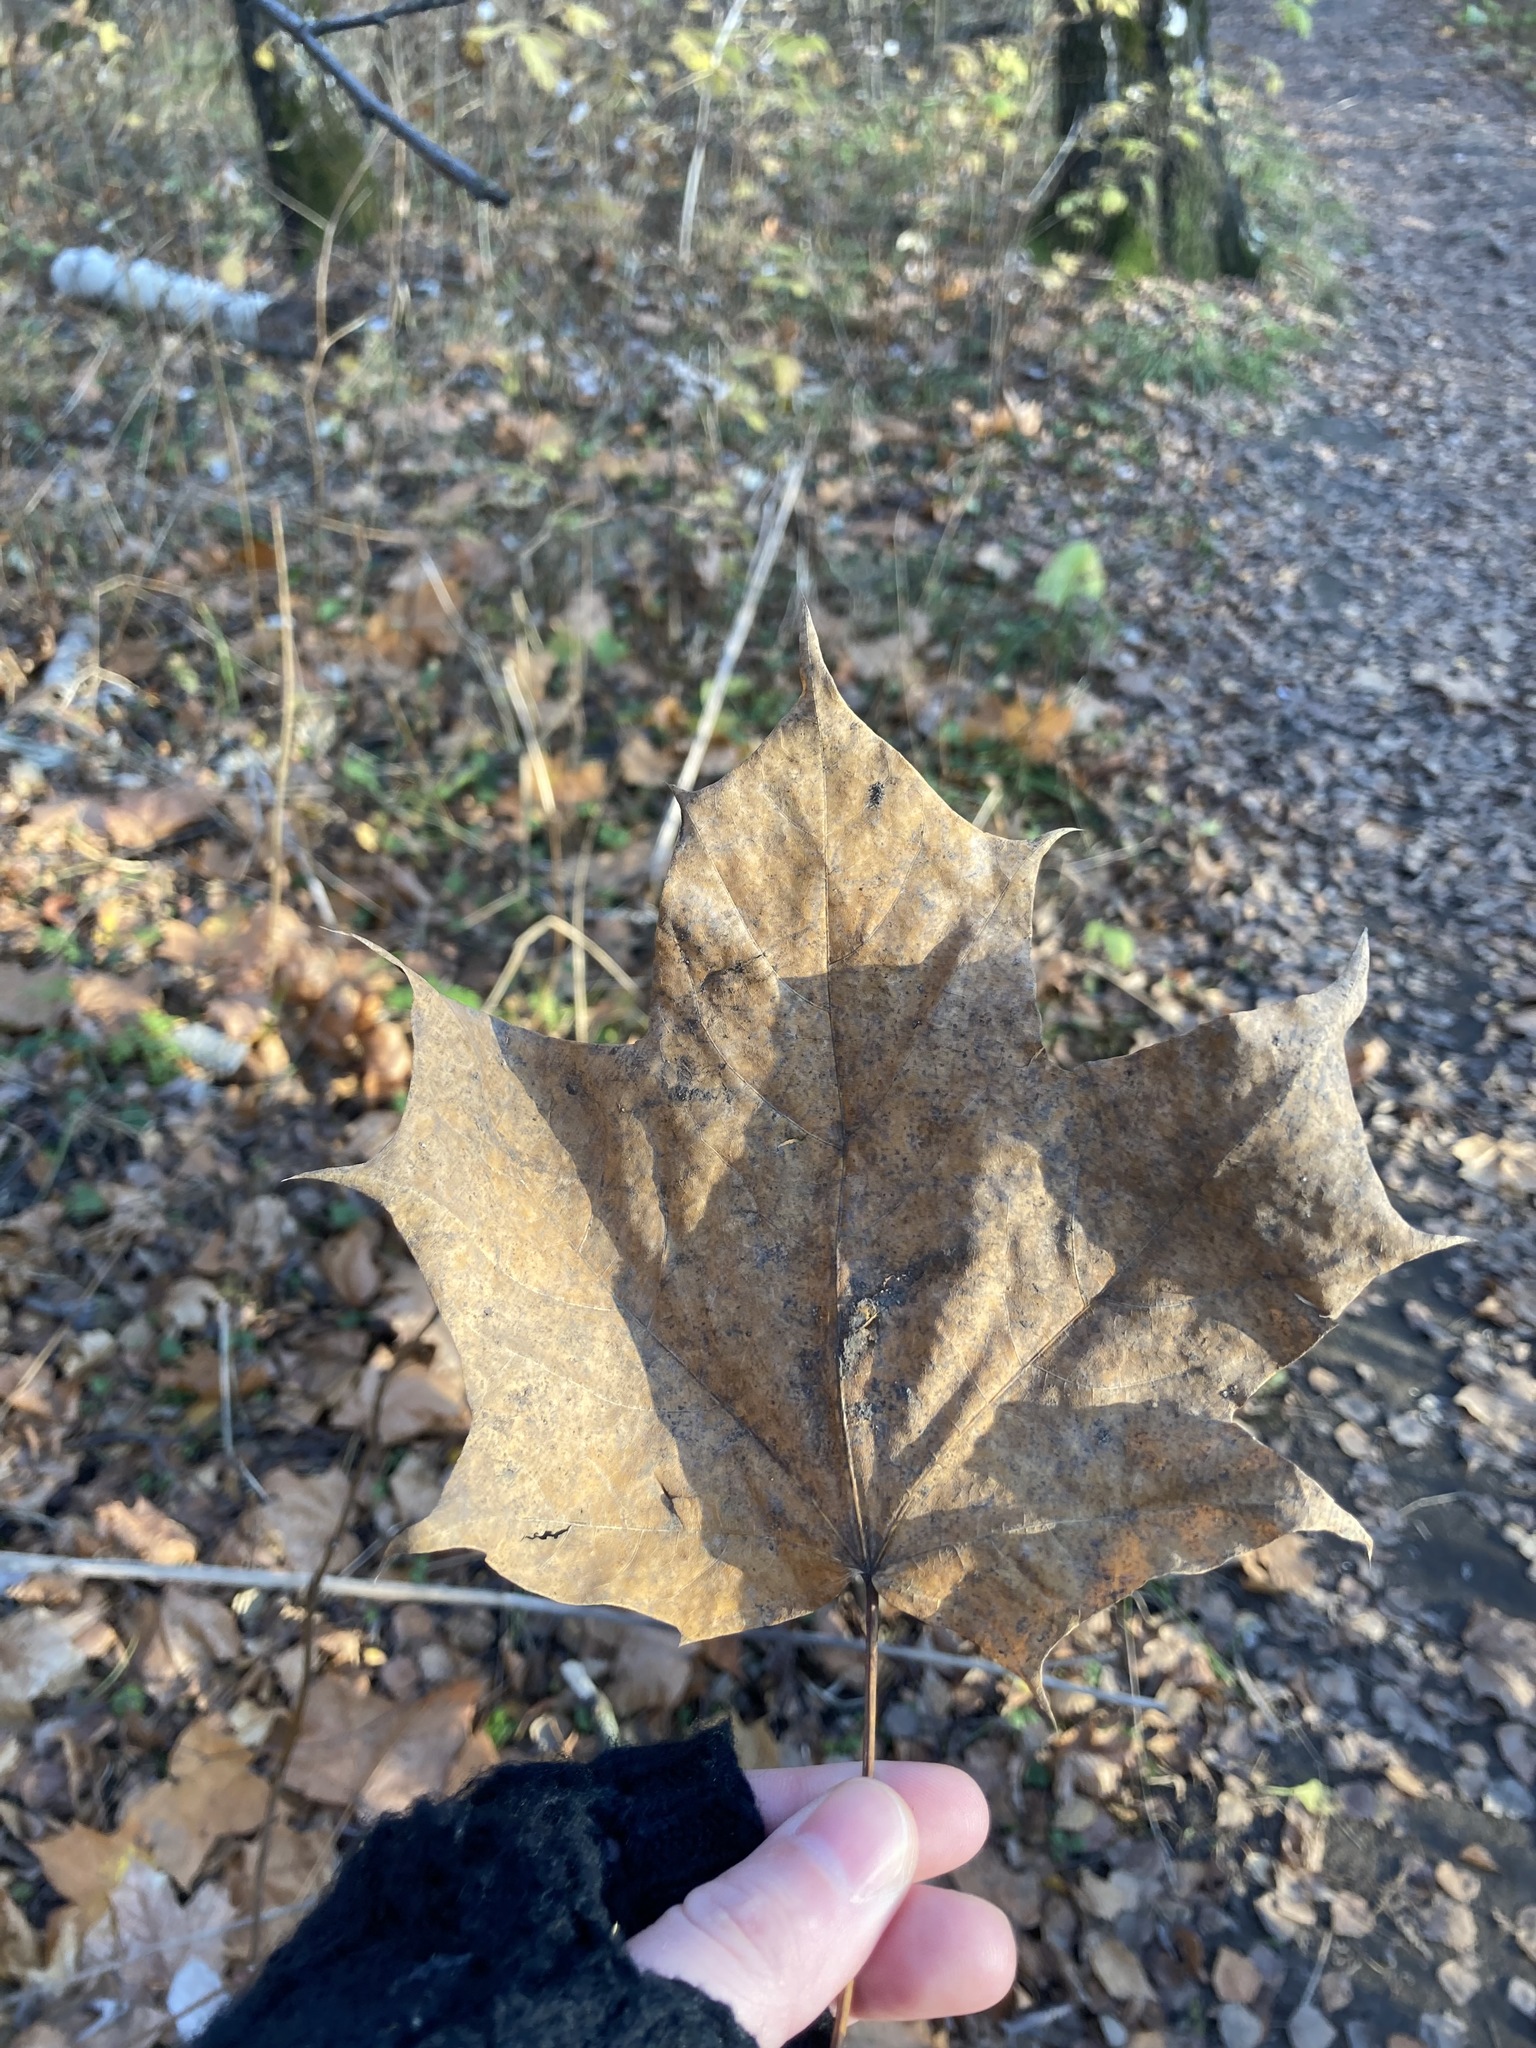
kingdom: Plantae
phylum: Tracheophyta
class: Magnoliopsida
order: Sapindales
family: Sapindaceae
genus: Acer
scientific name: Acer platanoides
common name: Norway maple
